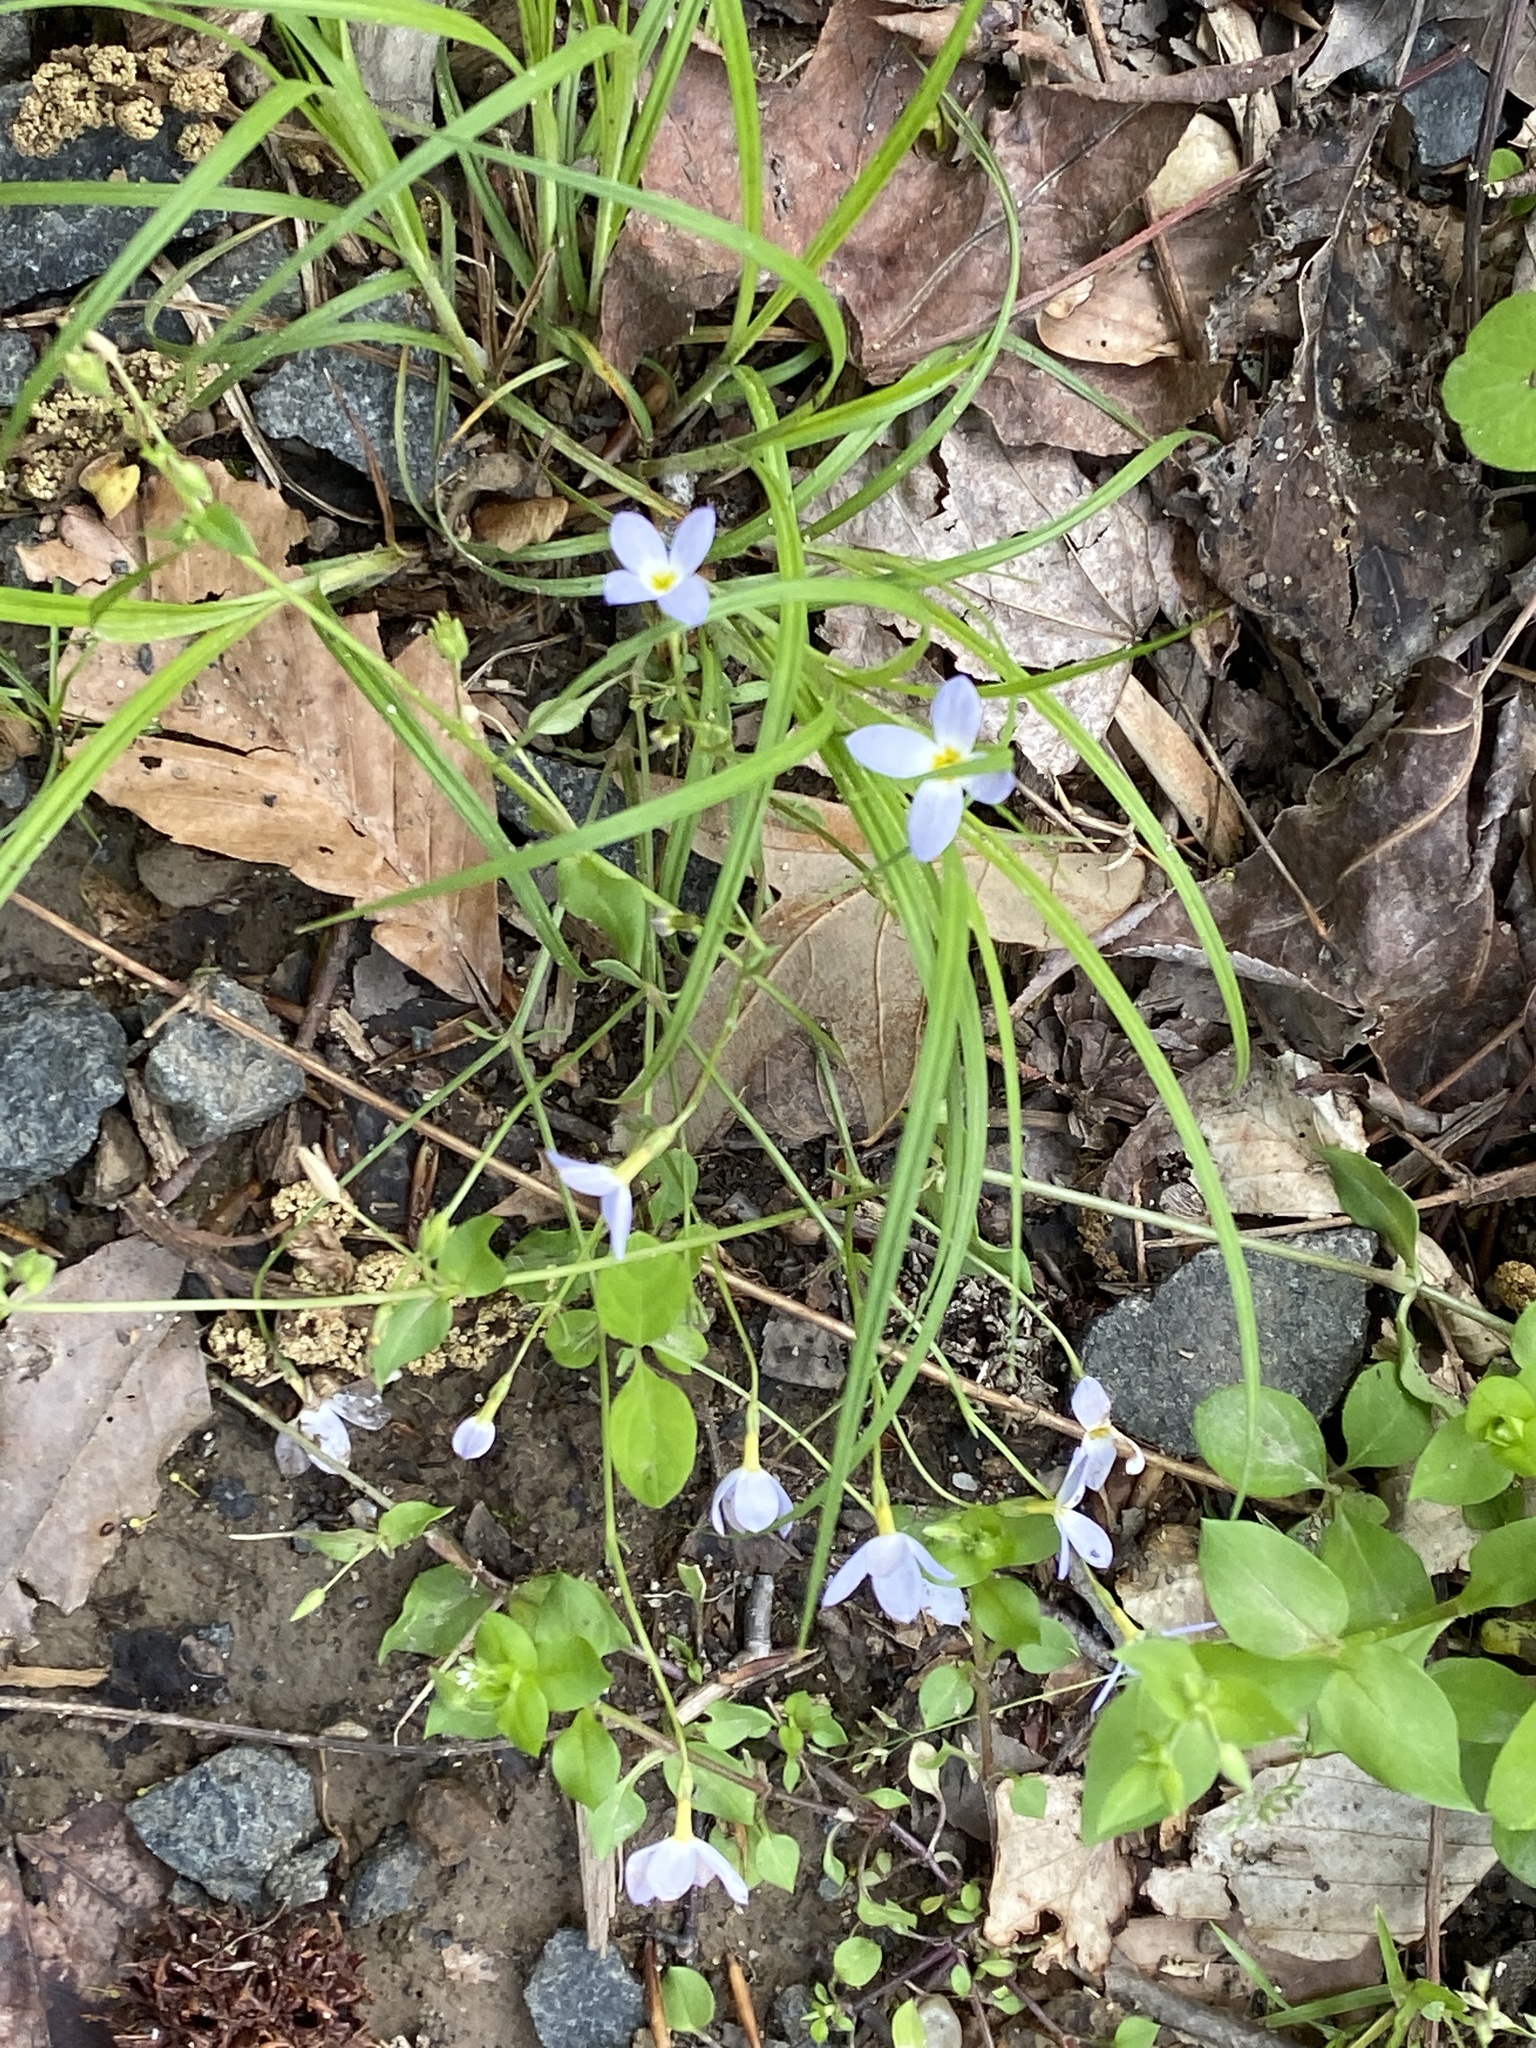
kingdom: Plantae
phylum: Tracheophyta
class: Magnoliopsida
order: Gentianales
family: Rubiaceae
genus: Houstonia
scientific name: Houstonia caerulea
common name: Bluets
